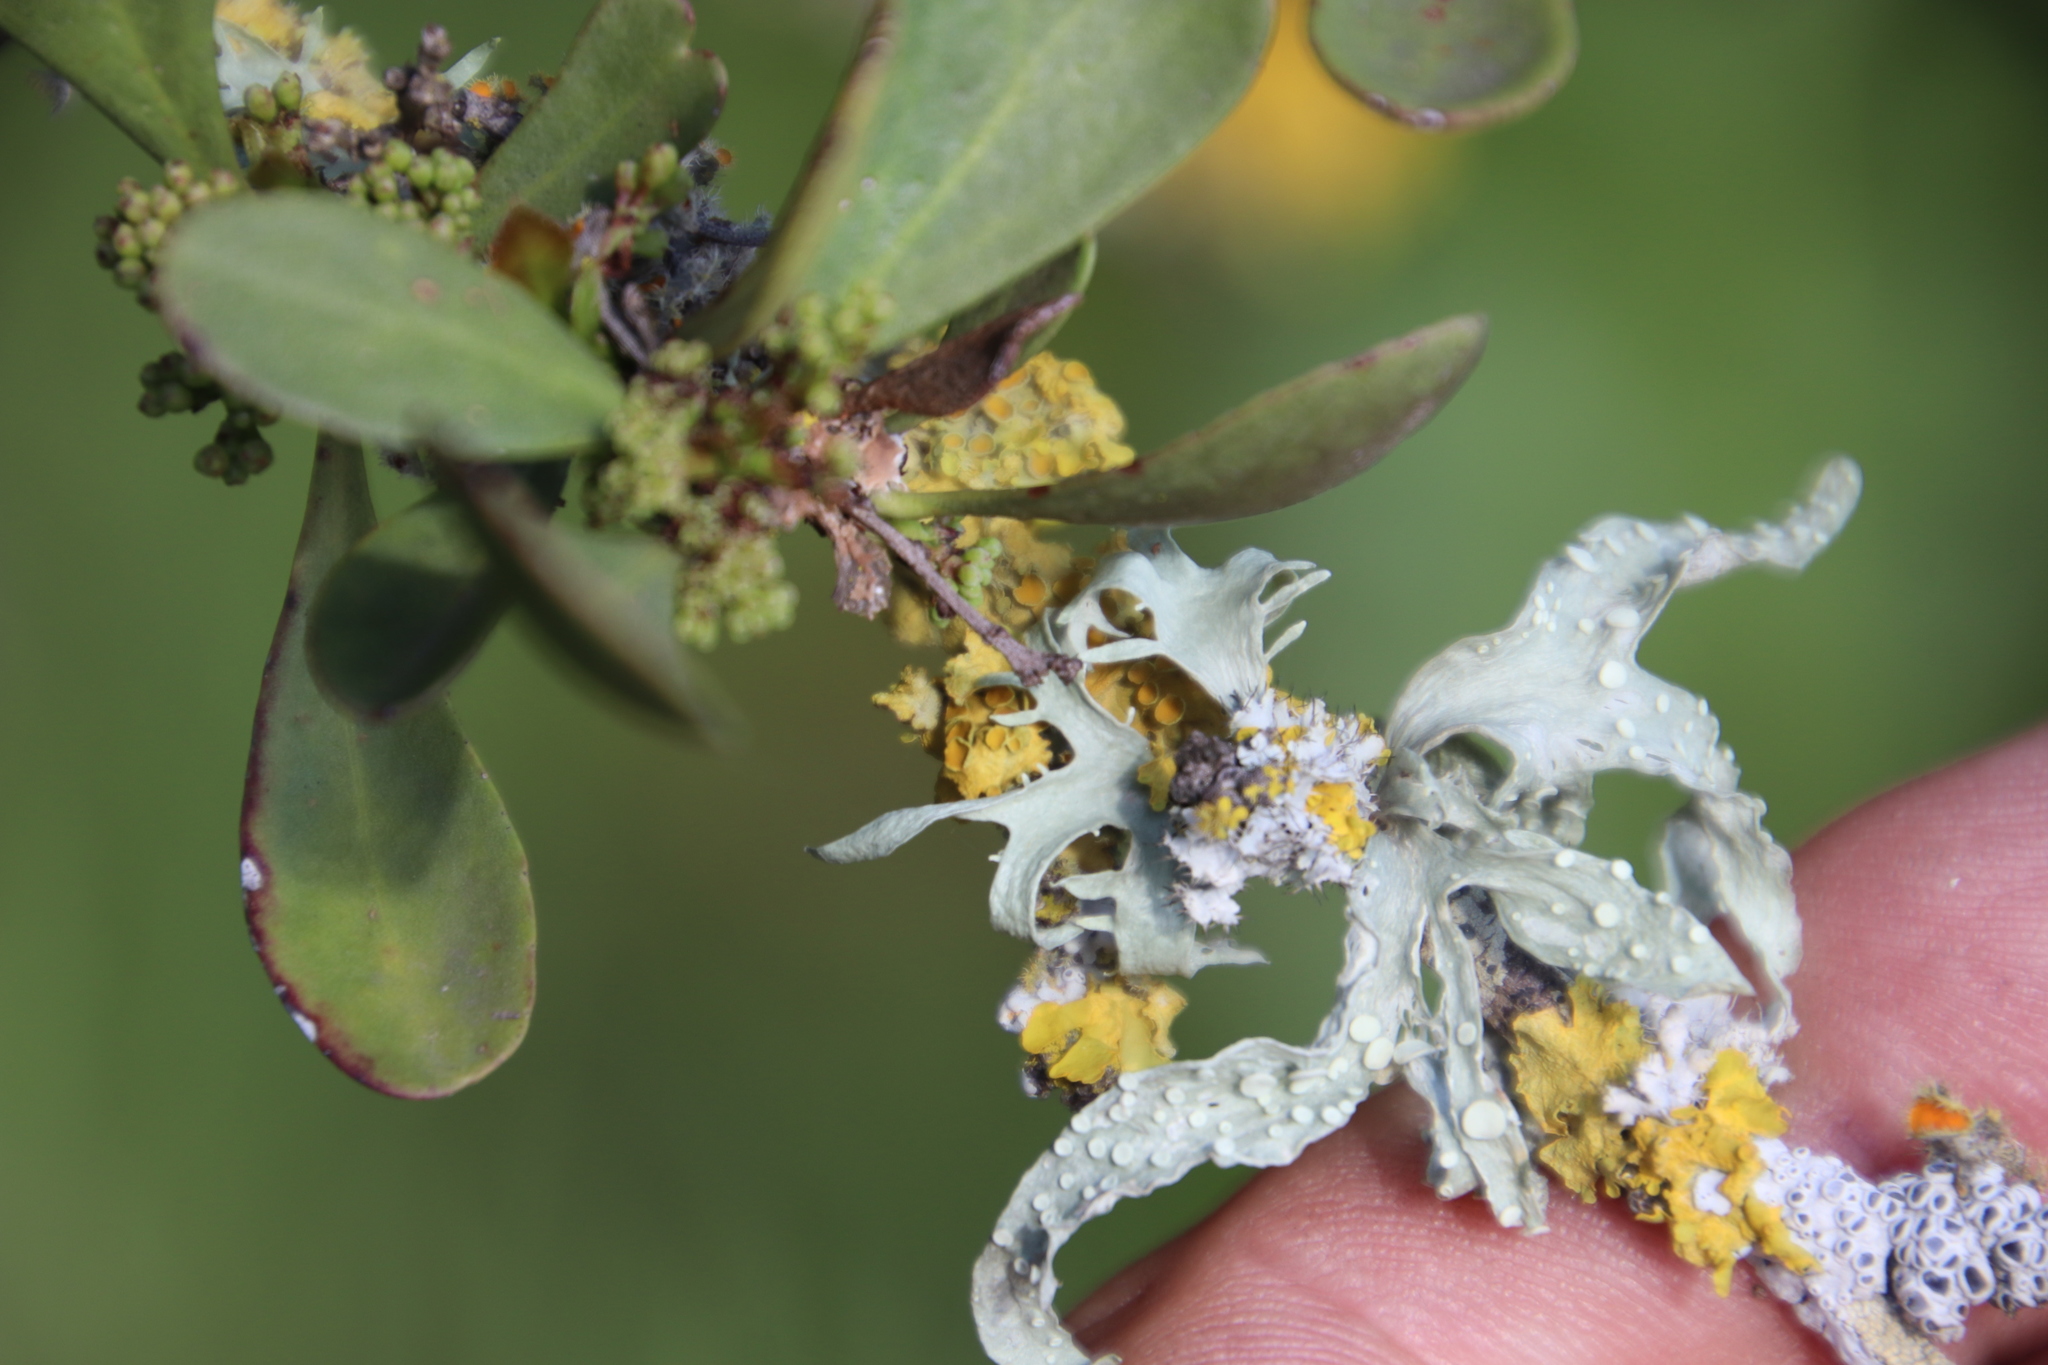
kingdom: Fungi
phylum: Ascomycota
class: Lecanoromycetes
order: Caliciales
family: Physciaceae
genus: Physcia
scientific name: Physcia adscendens
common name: Hooded rosette lichen
